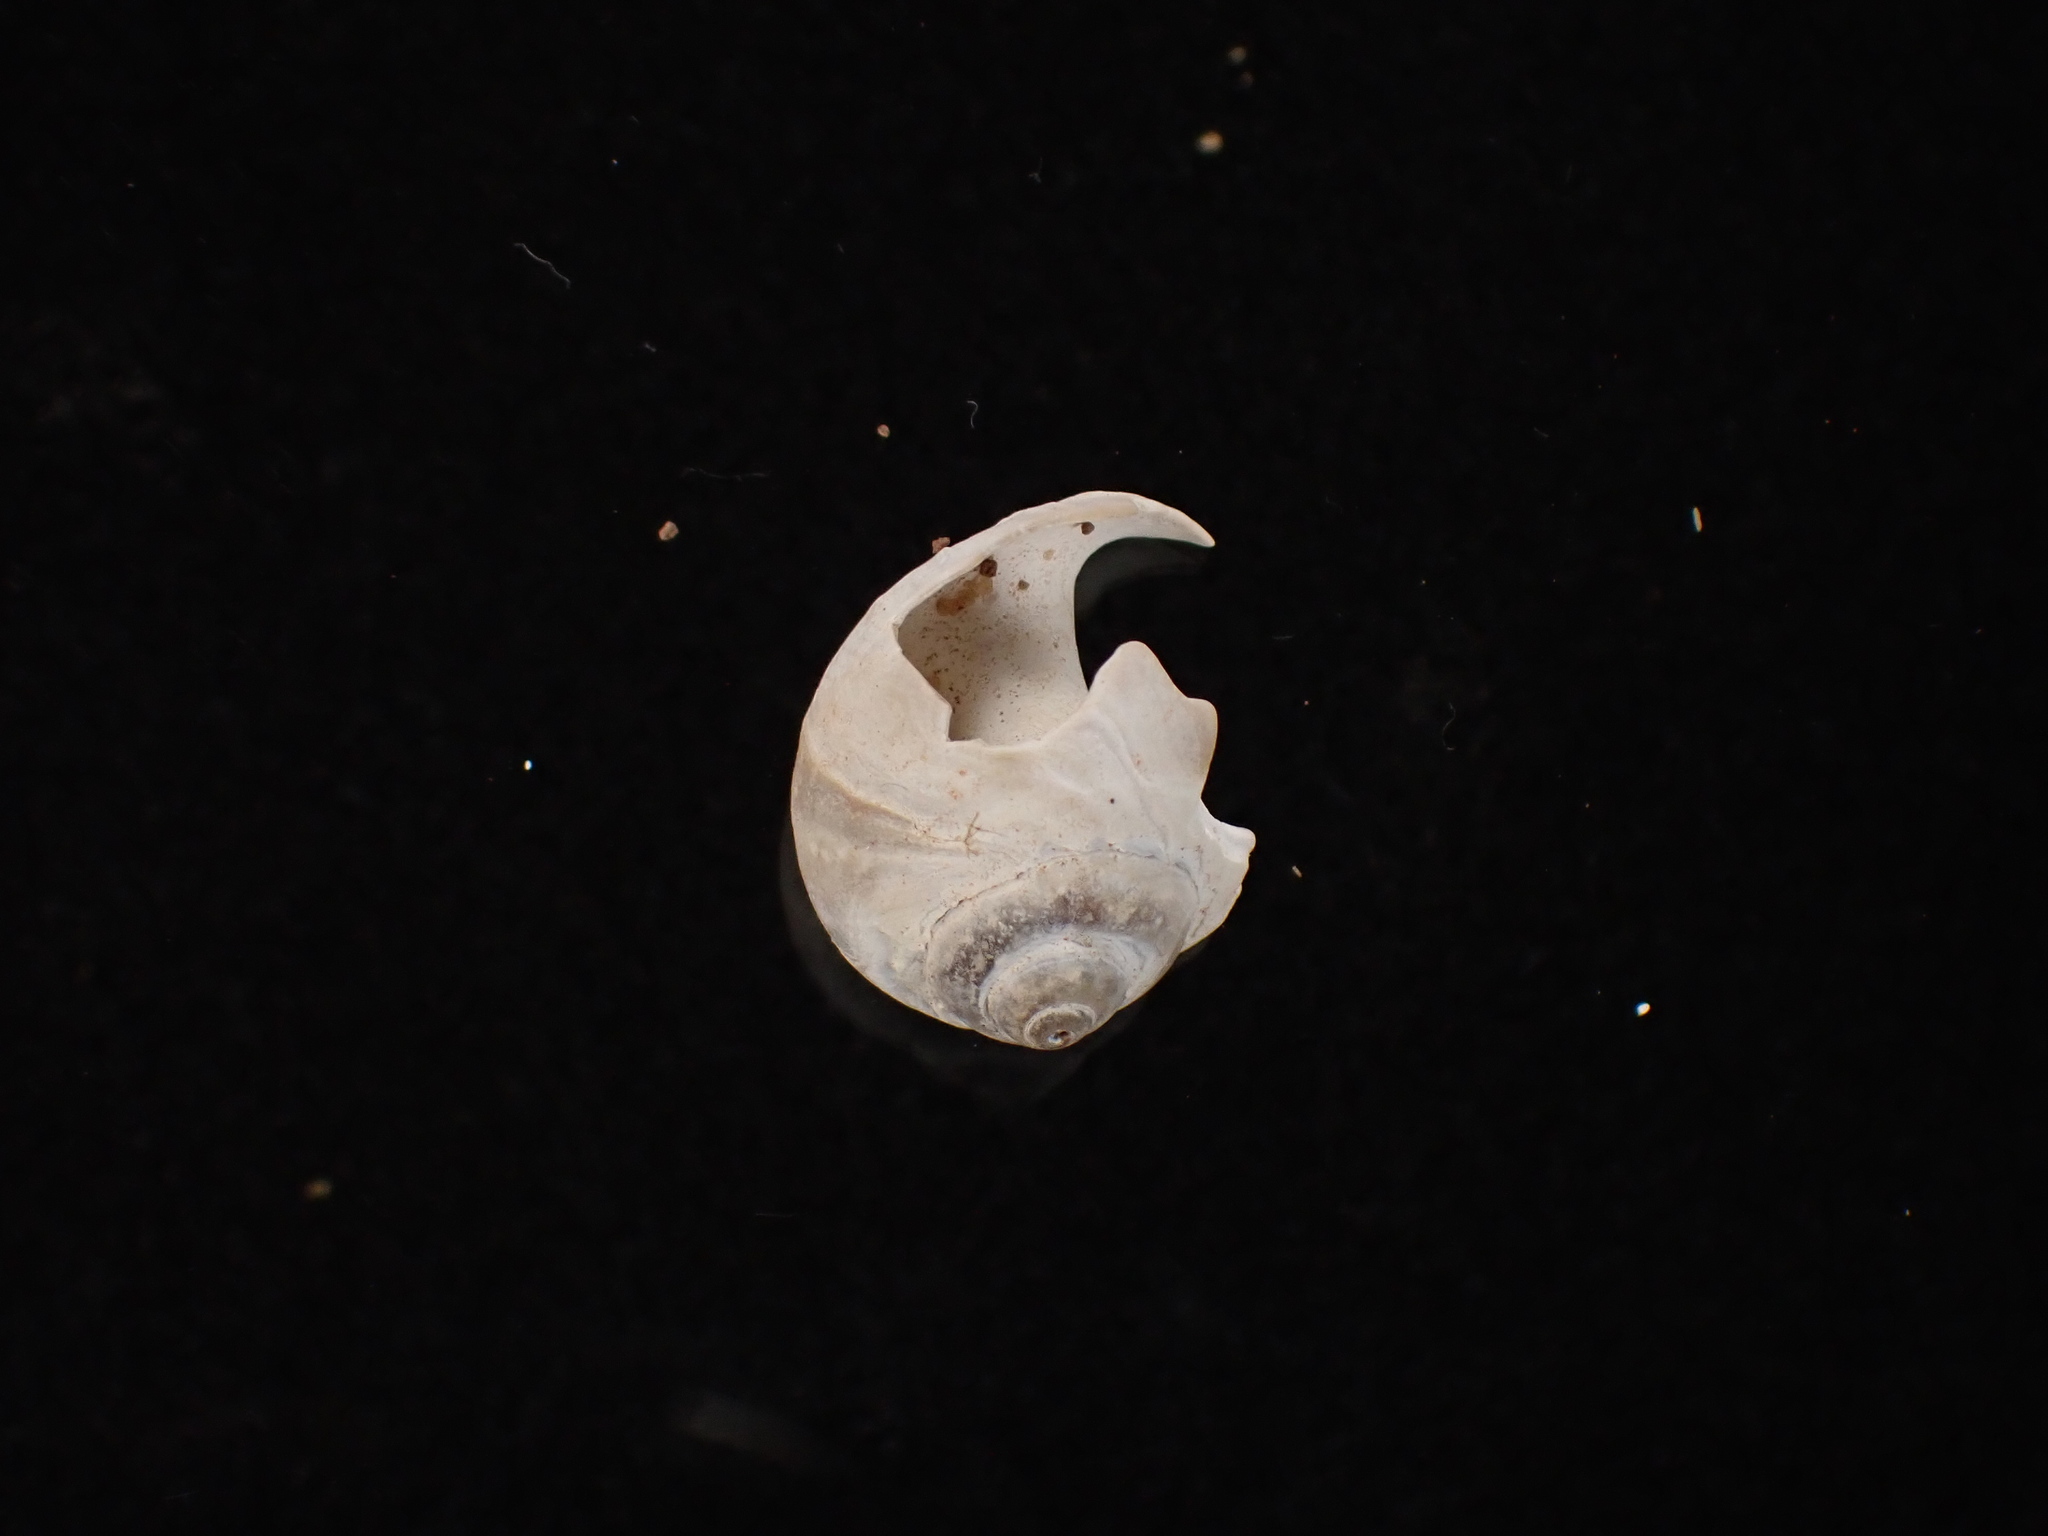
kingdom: Animalia
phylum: Mollusca
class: Gastropoda
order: Littorinimorpha
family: Naticidae
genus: Euspira
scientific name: Euspira heros
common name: Common northern moonsnail
